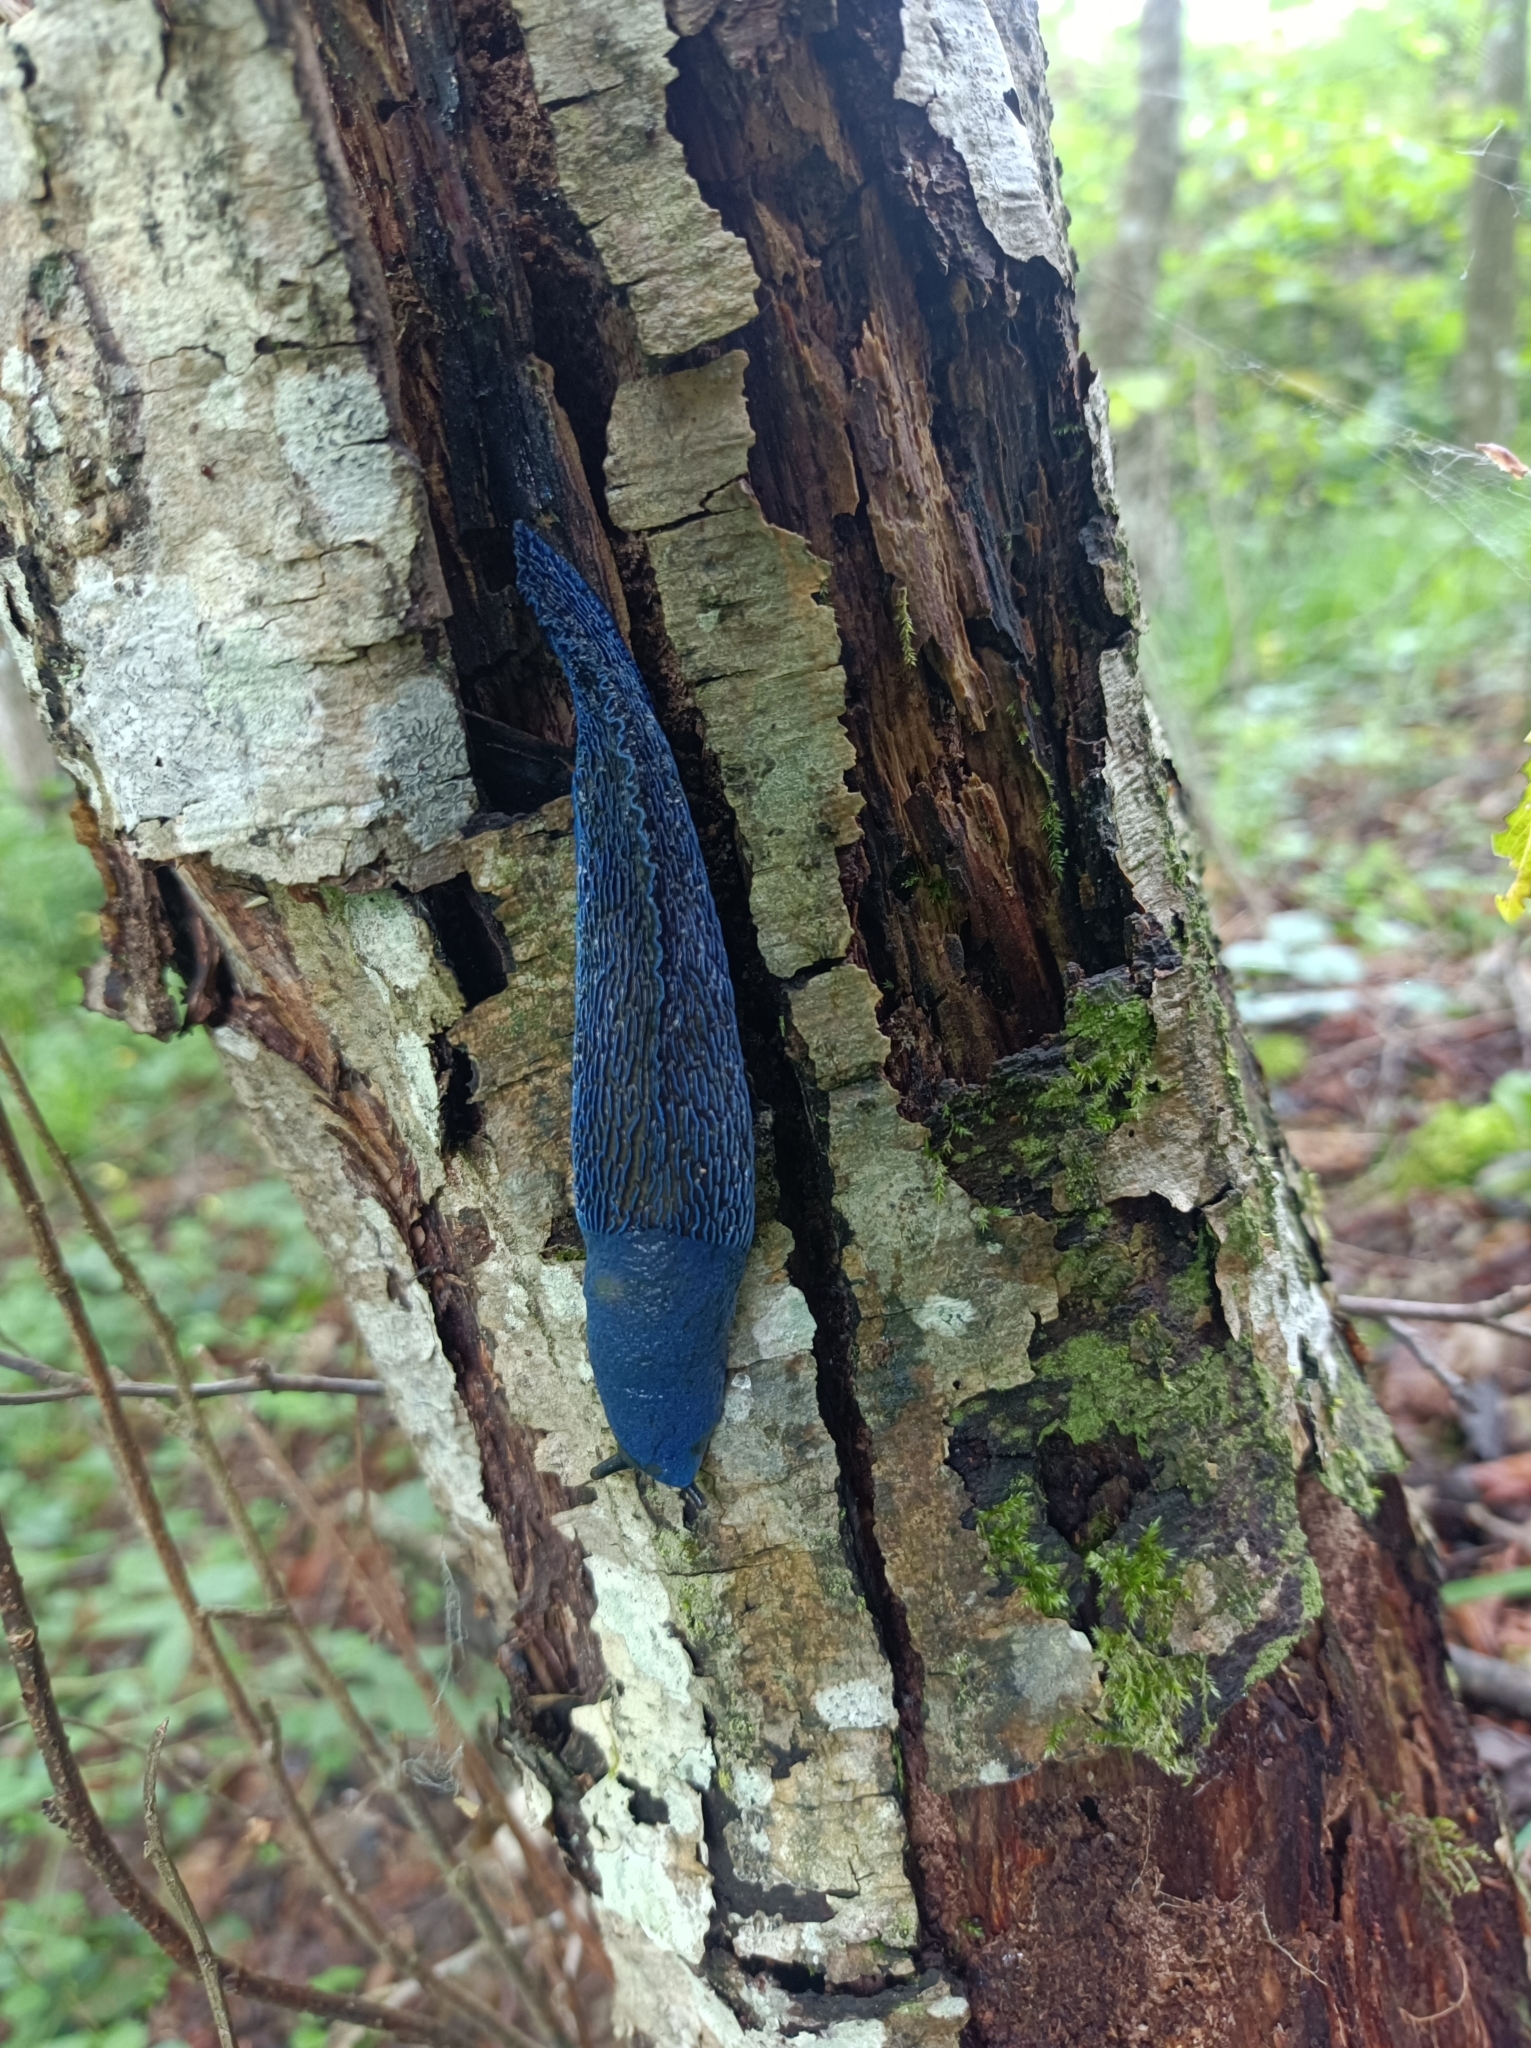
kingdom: Animalia
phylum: Mollusca
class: Gastropoda
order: Stylommatophora
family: Limacidae
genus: Bielzia
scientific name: Bielzia coerulans
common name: Carpathian blue slug
